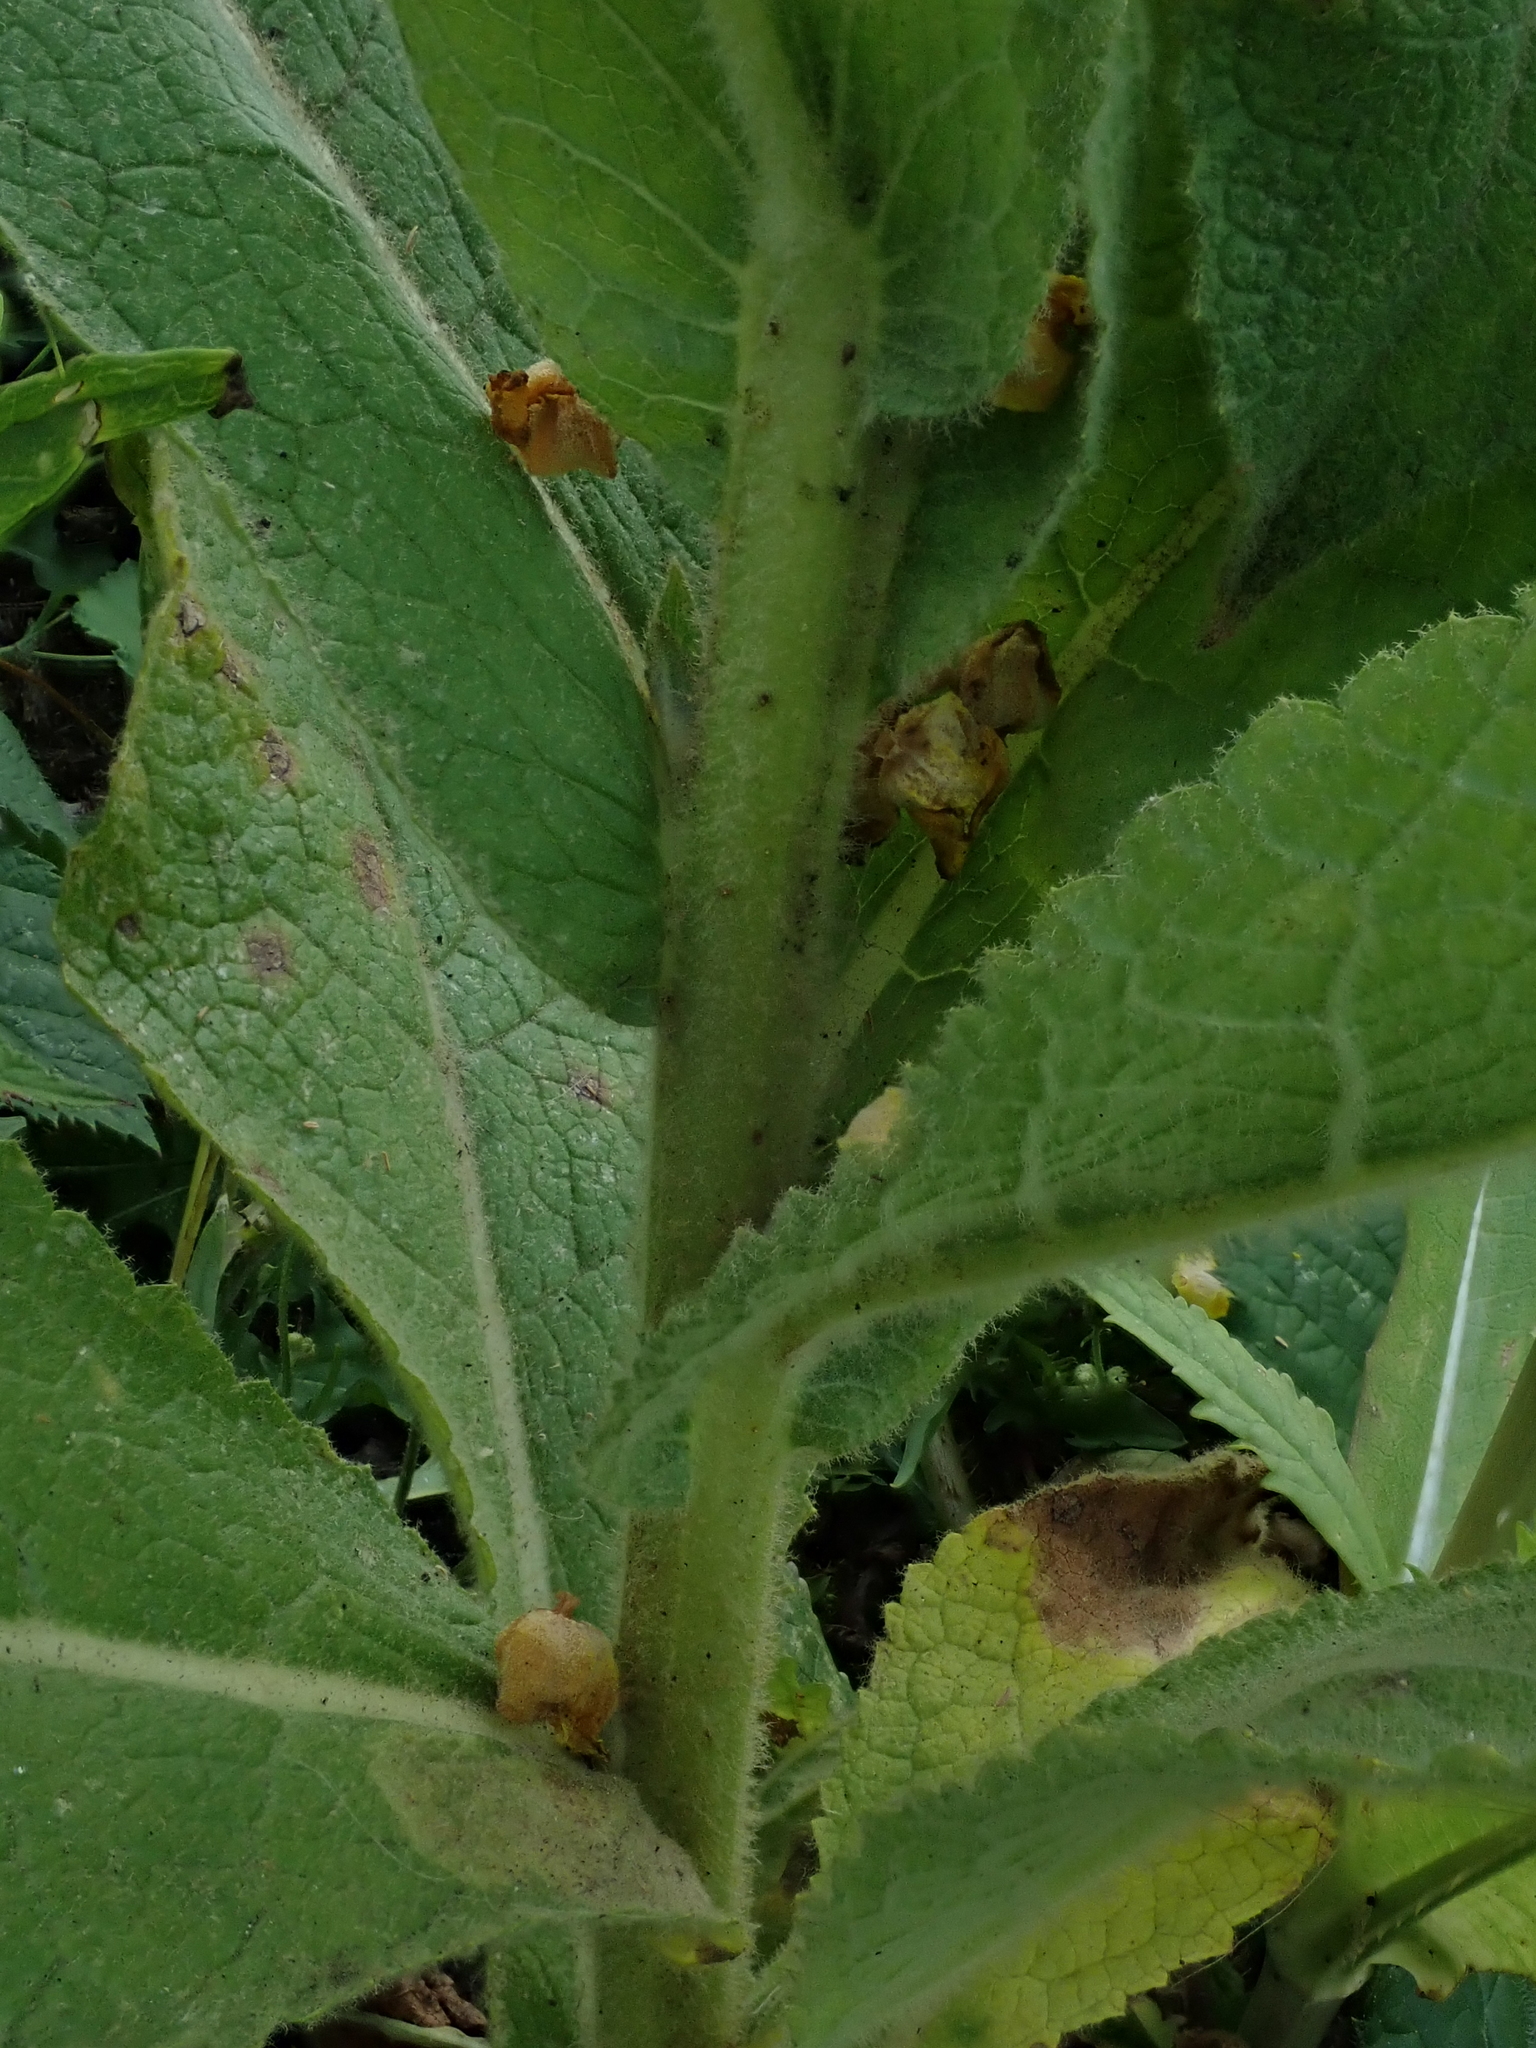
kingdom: Plantae
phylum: Tracheophyta
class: Magnoliopsida
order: Lamiales
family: Scrophulariaceae
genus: Verbascum
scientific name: Verbascum phlomoides
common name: Orange mullein
